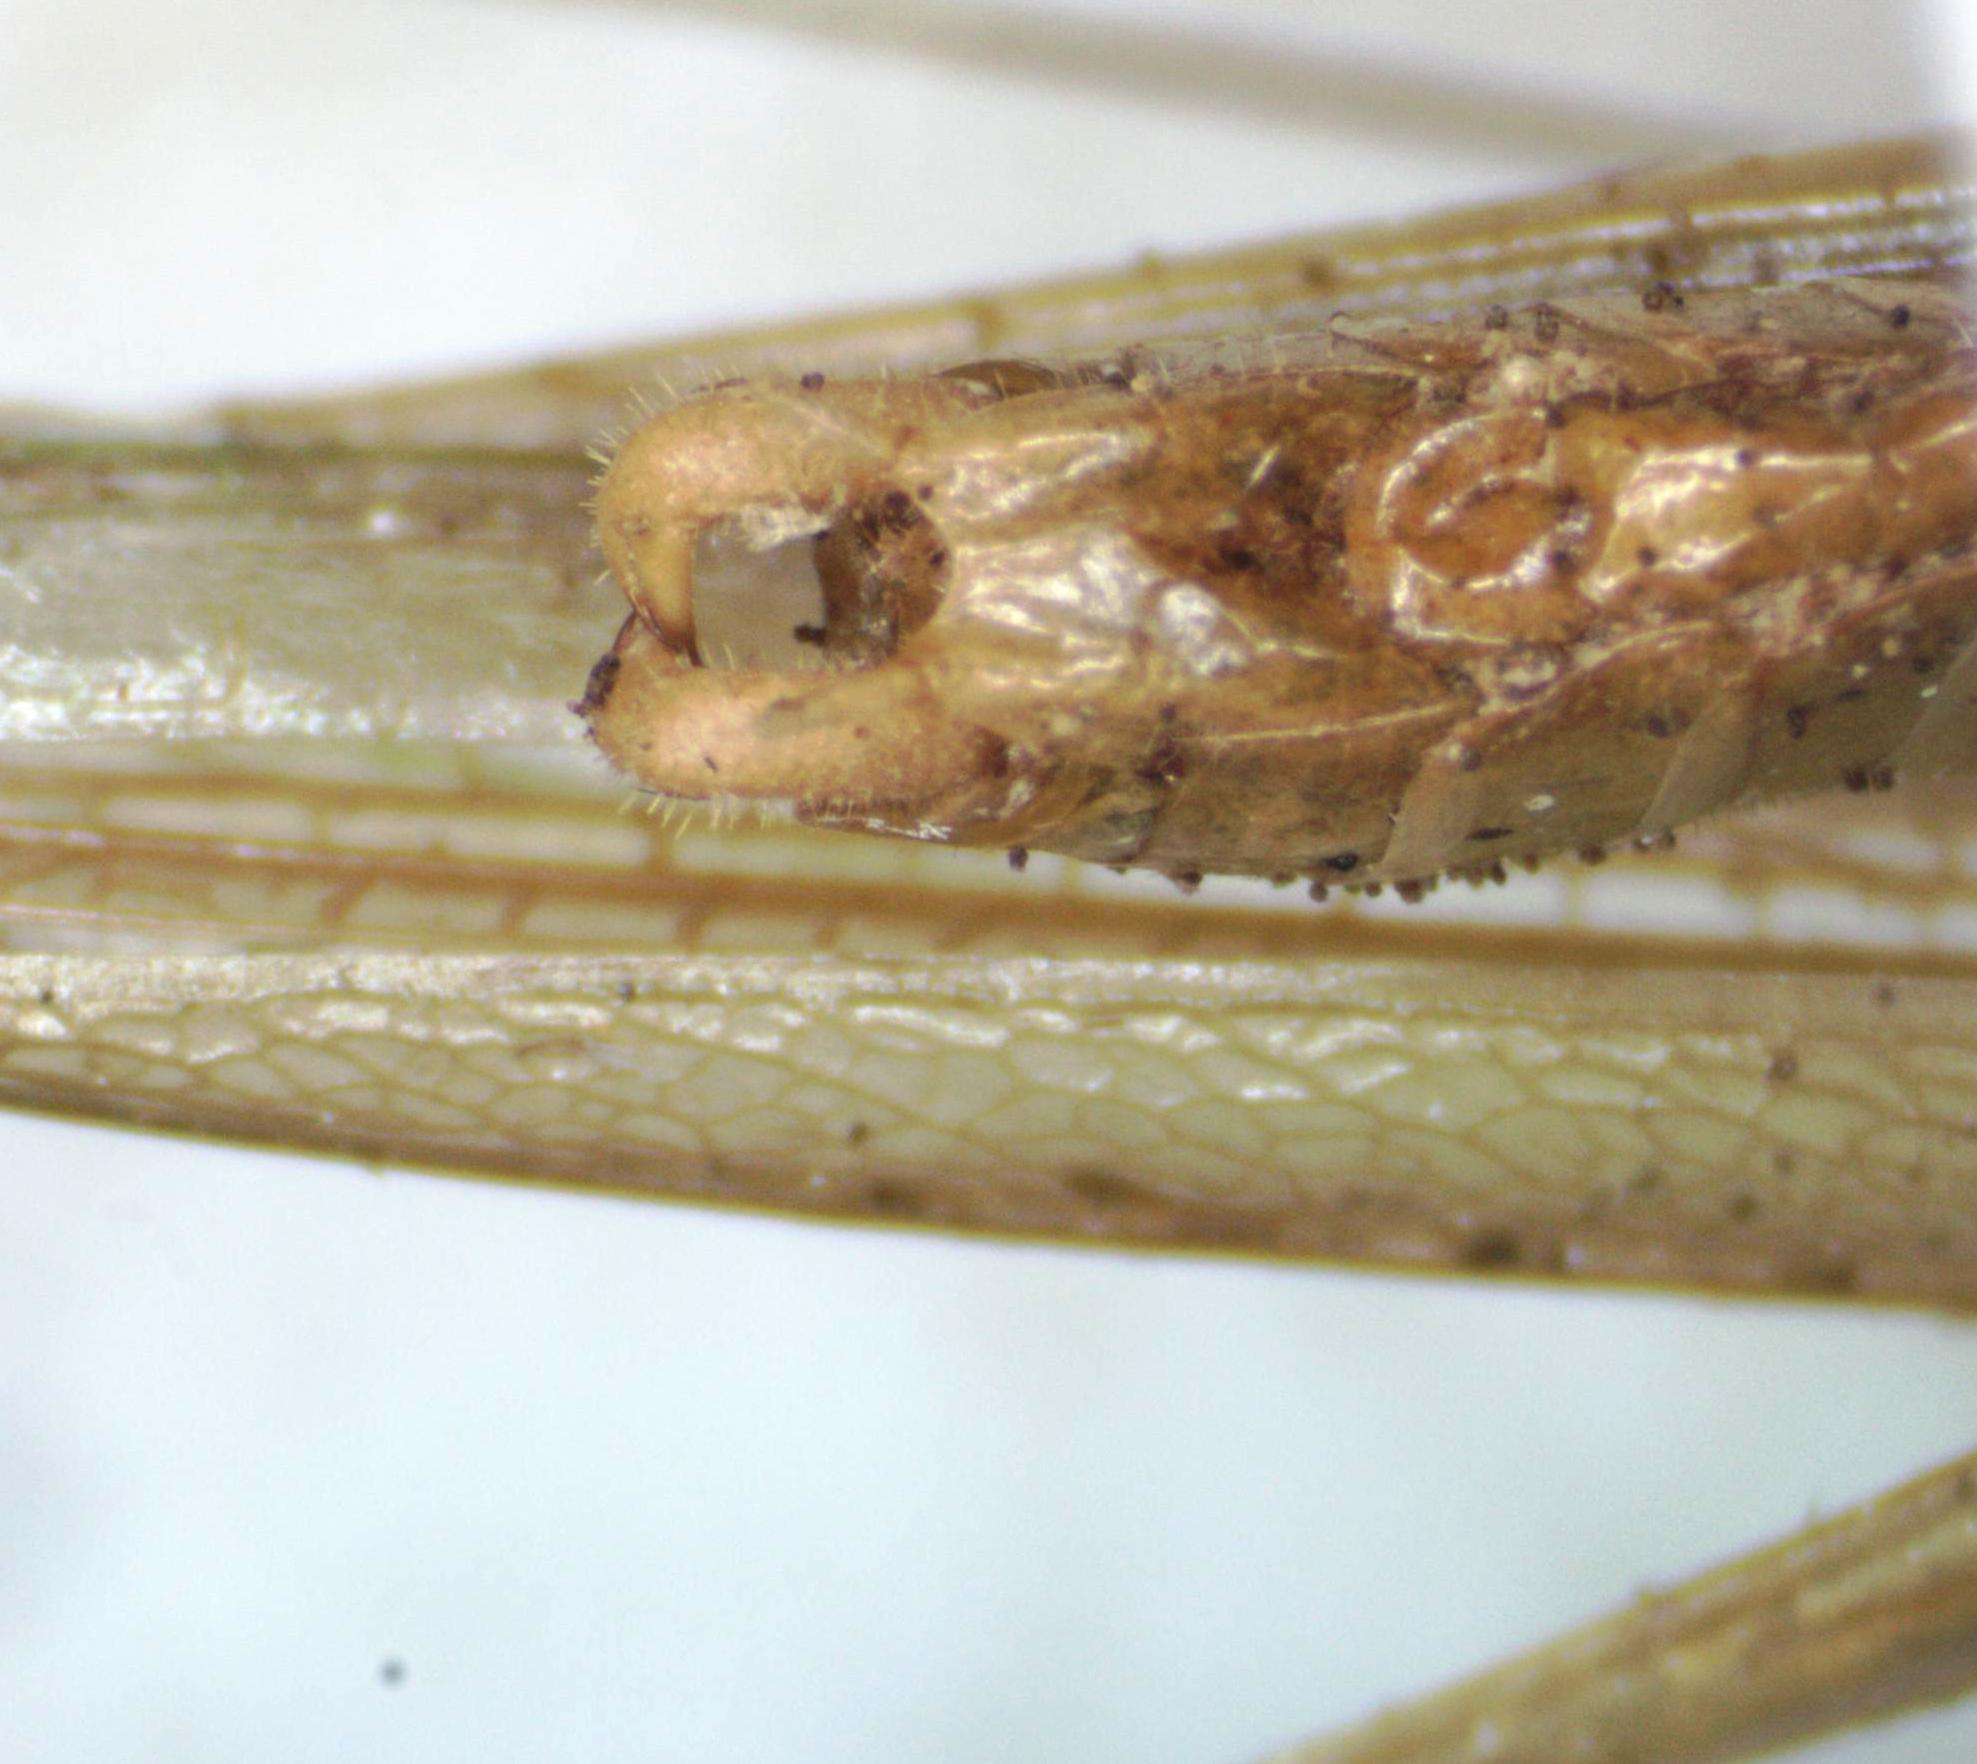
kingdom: Animalia
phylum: Arthropoda
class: Insecta
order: Orthoptera
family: Tettigoniidae
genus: Caulopsis
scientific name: Caulopsis microprora
